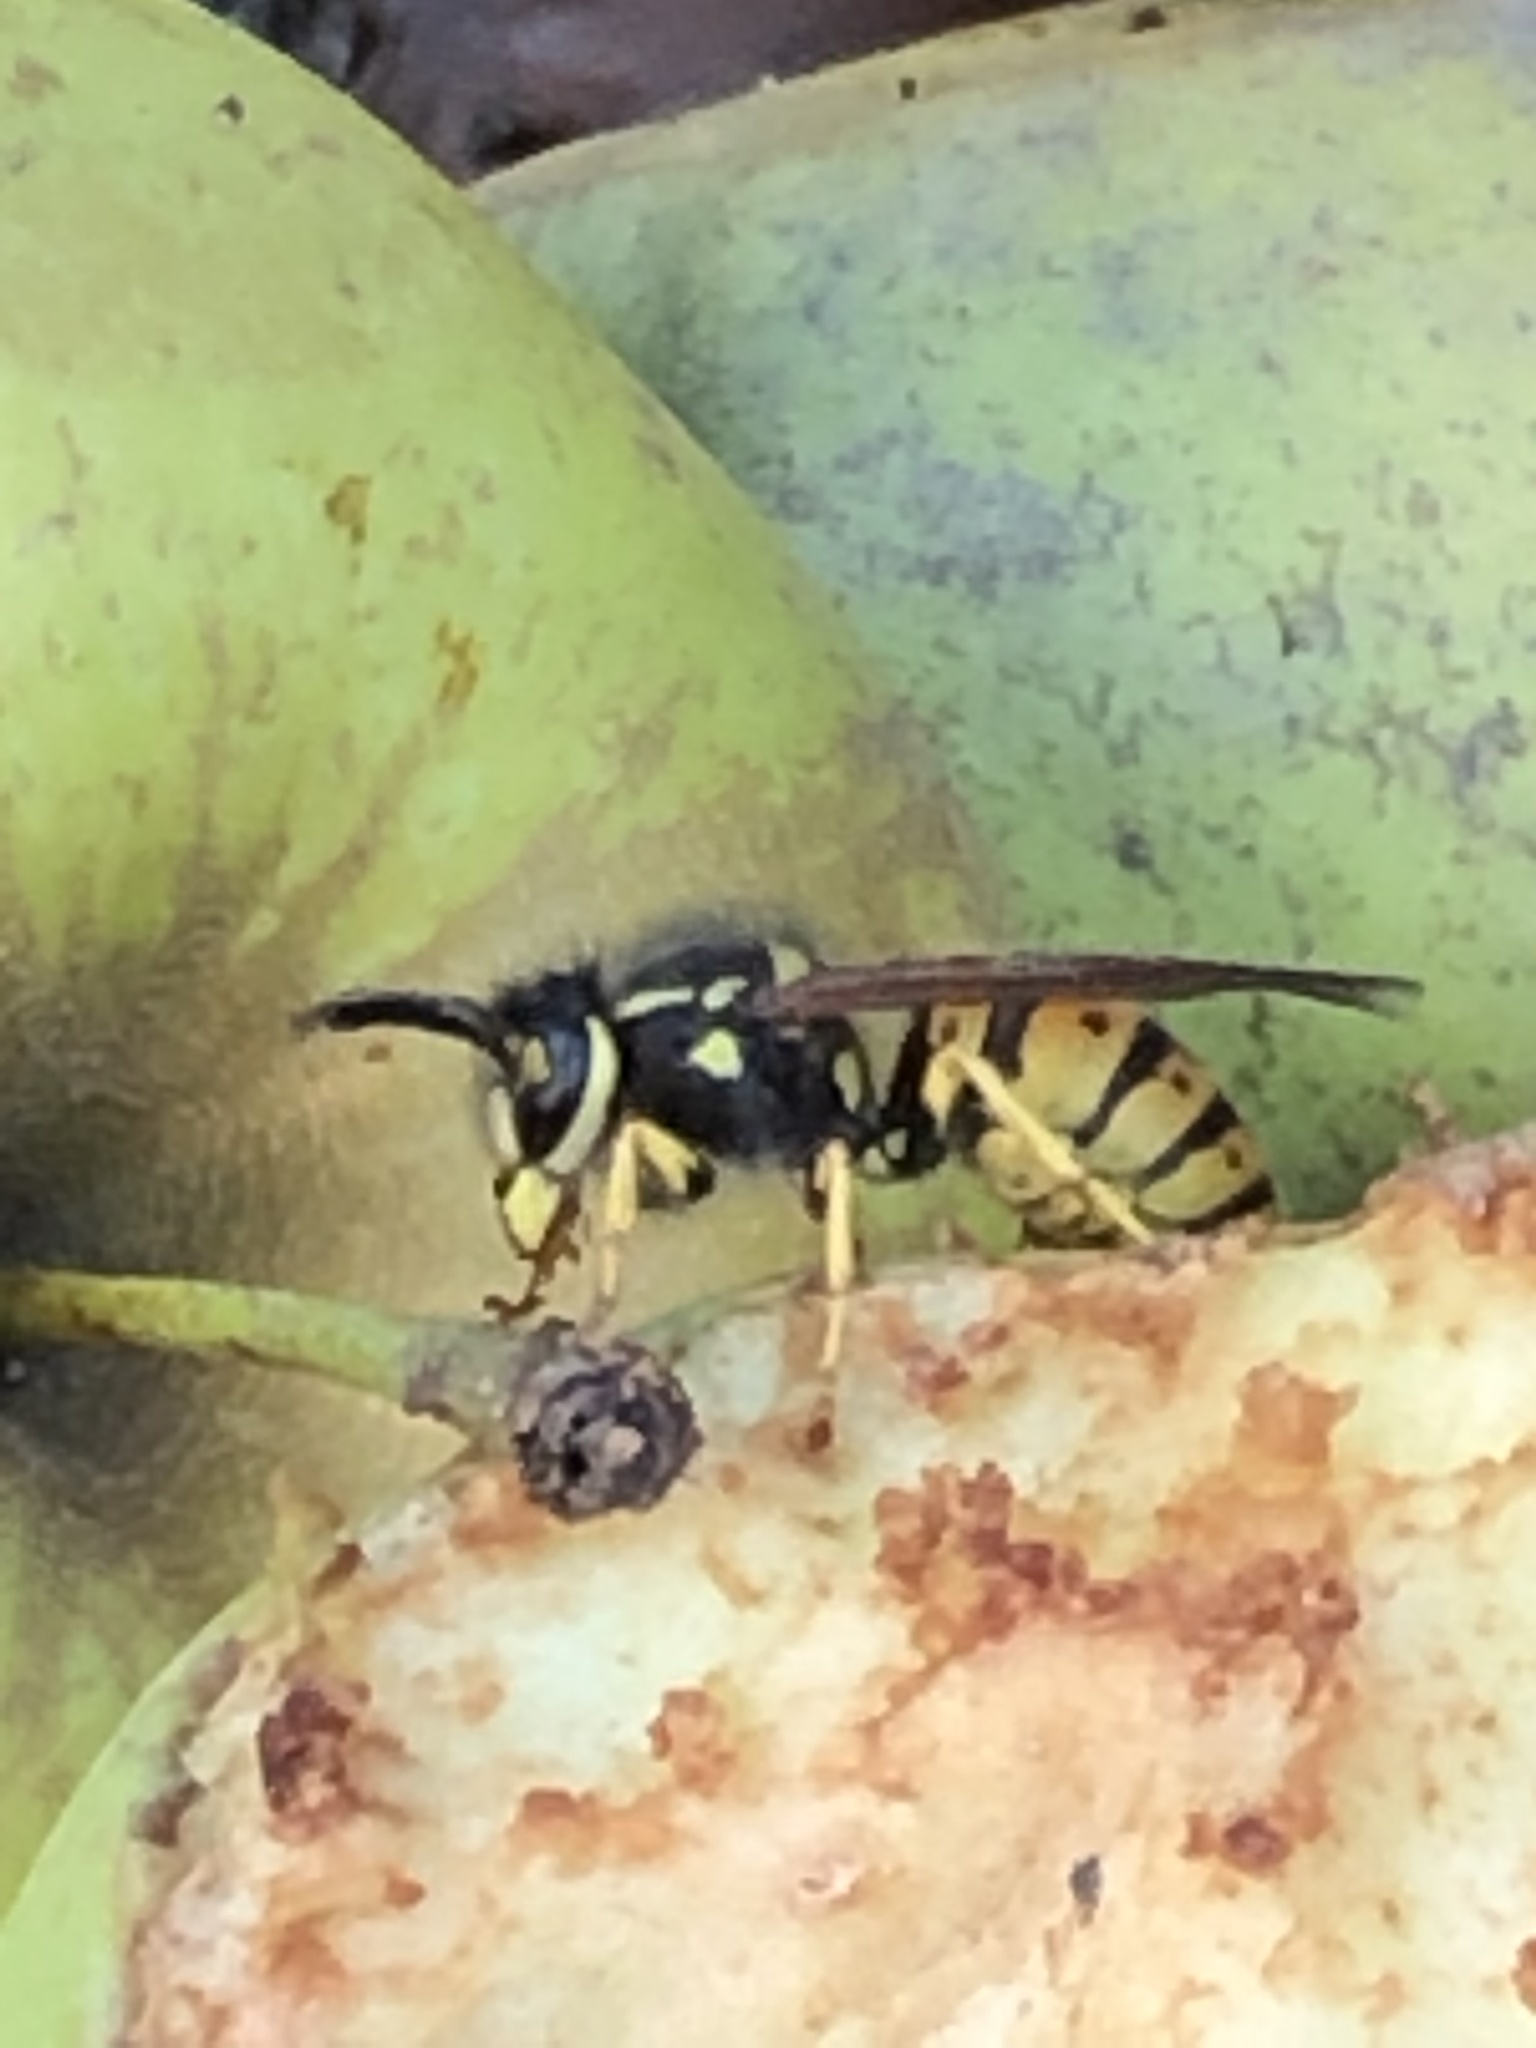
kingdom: Animalia
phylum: Arthropoda
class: Insecta
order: Hymenoptera
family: Vespidae
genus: Vespula
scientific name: Vespula germanica
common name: German wasp
